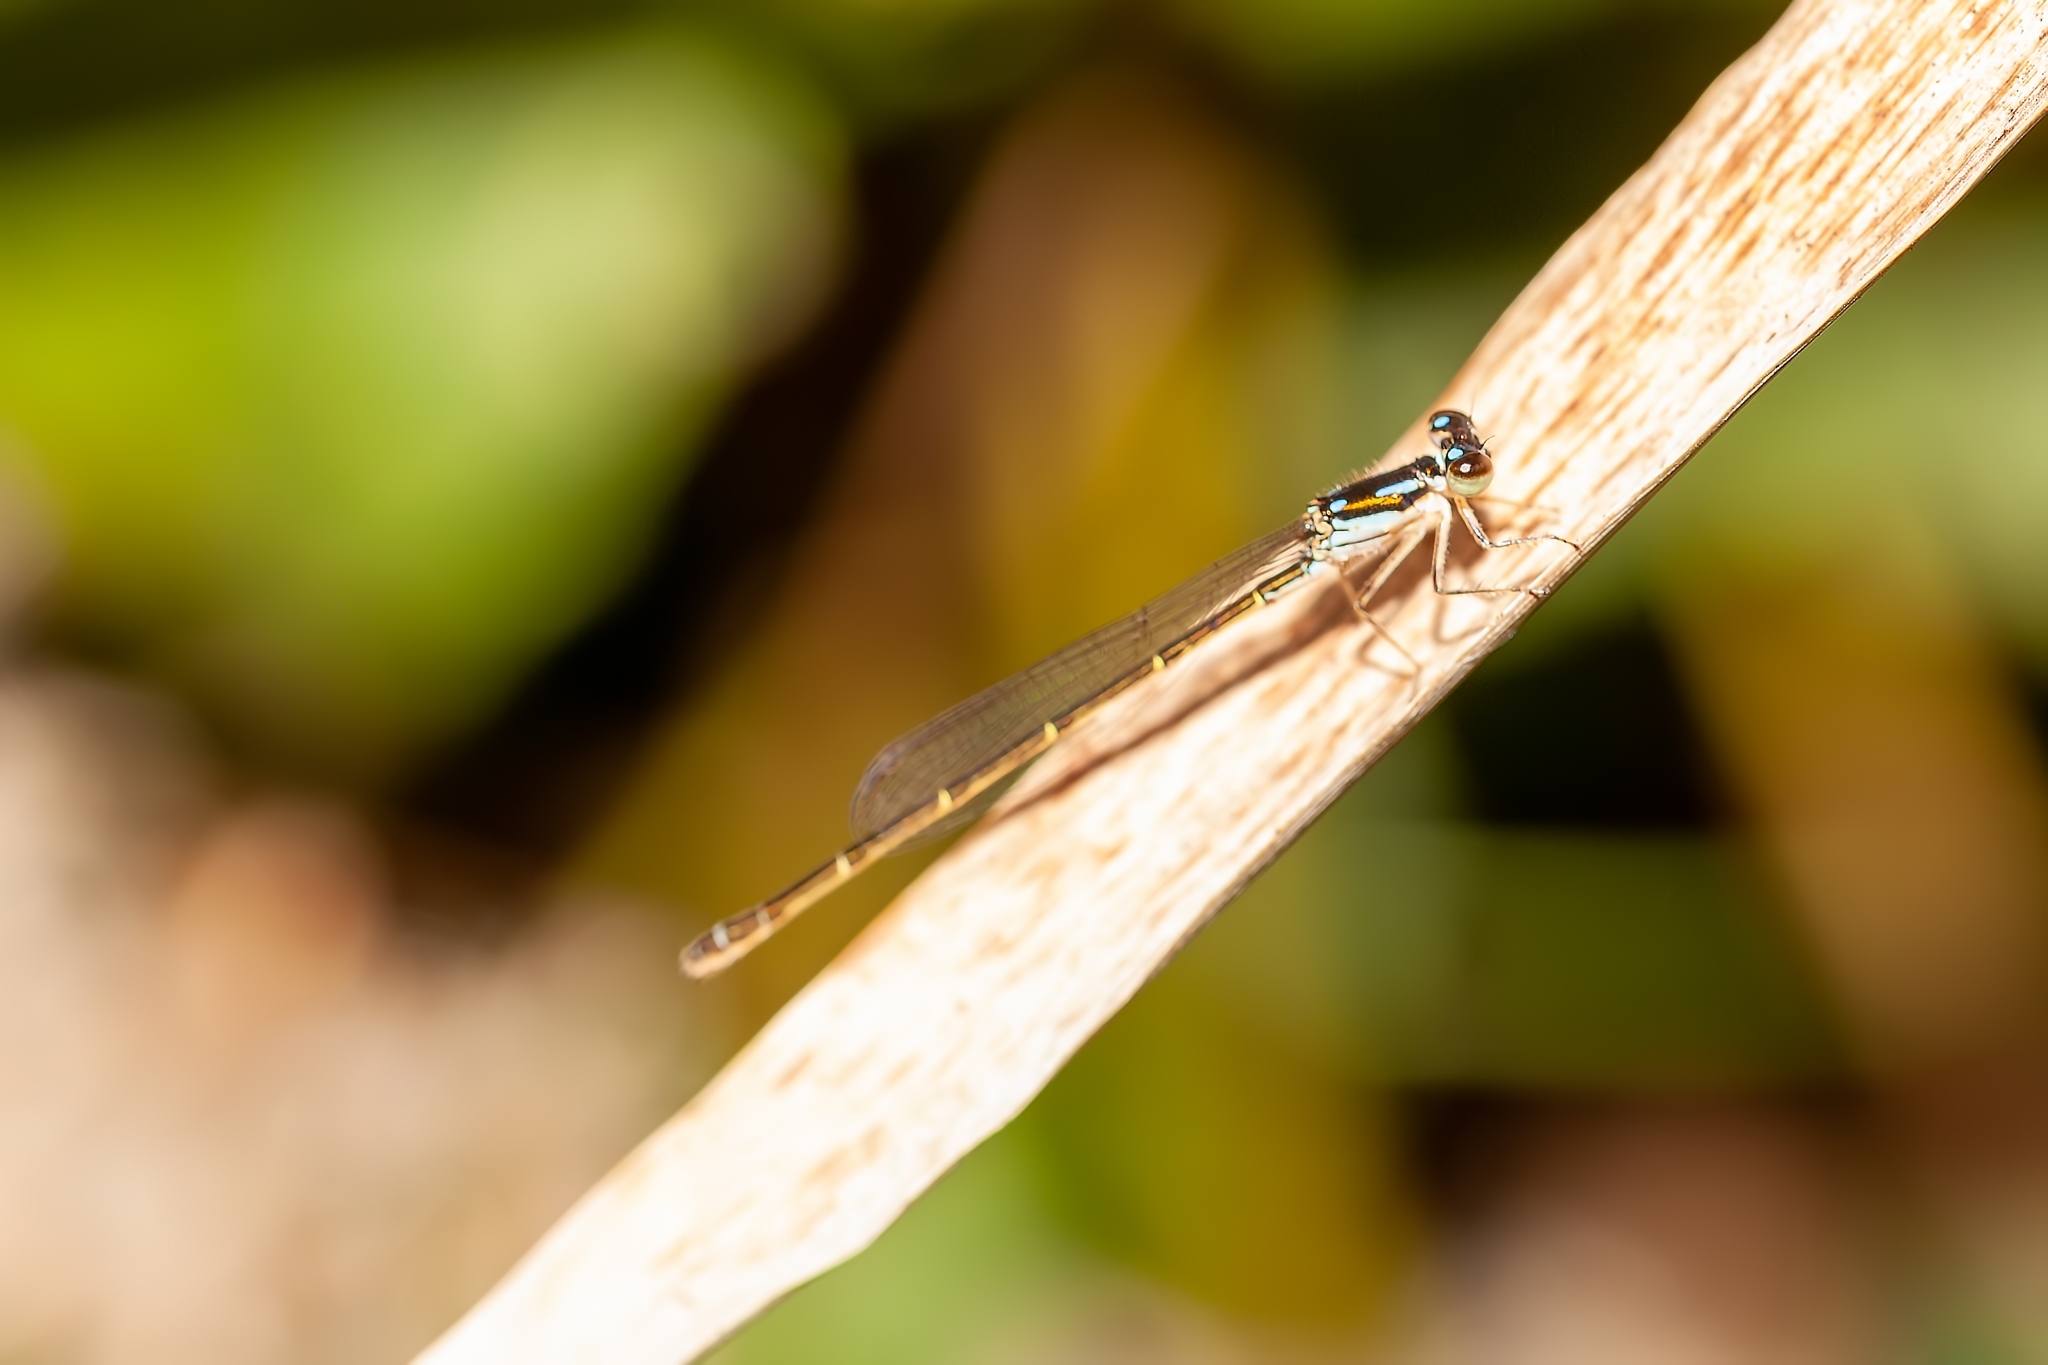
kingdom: Animalia
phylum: Arthropoda
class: Insecta
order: Odonata
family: Coenagrionidae
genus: Ischnura
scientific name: Ischnura posita
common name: Fragile forktail
